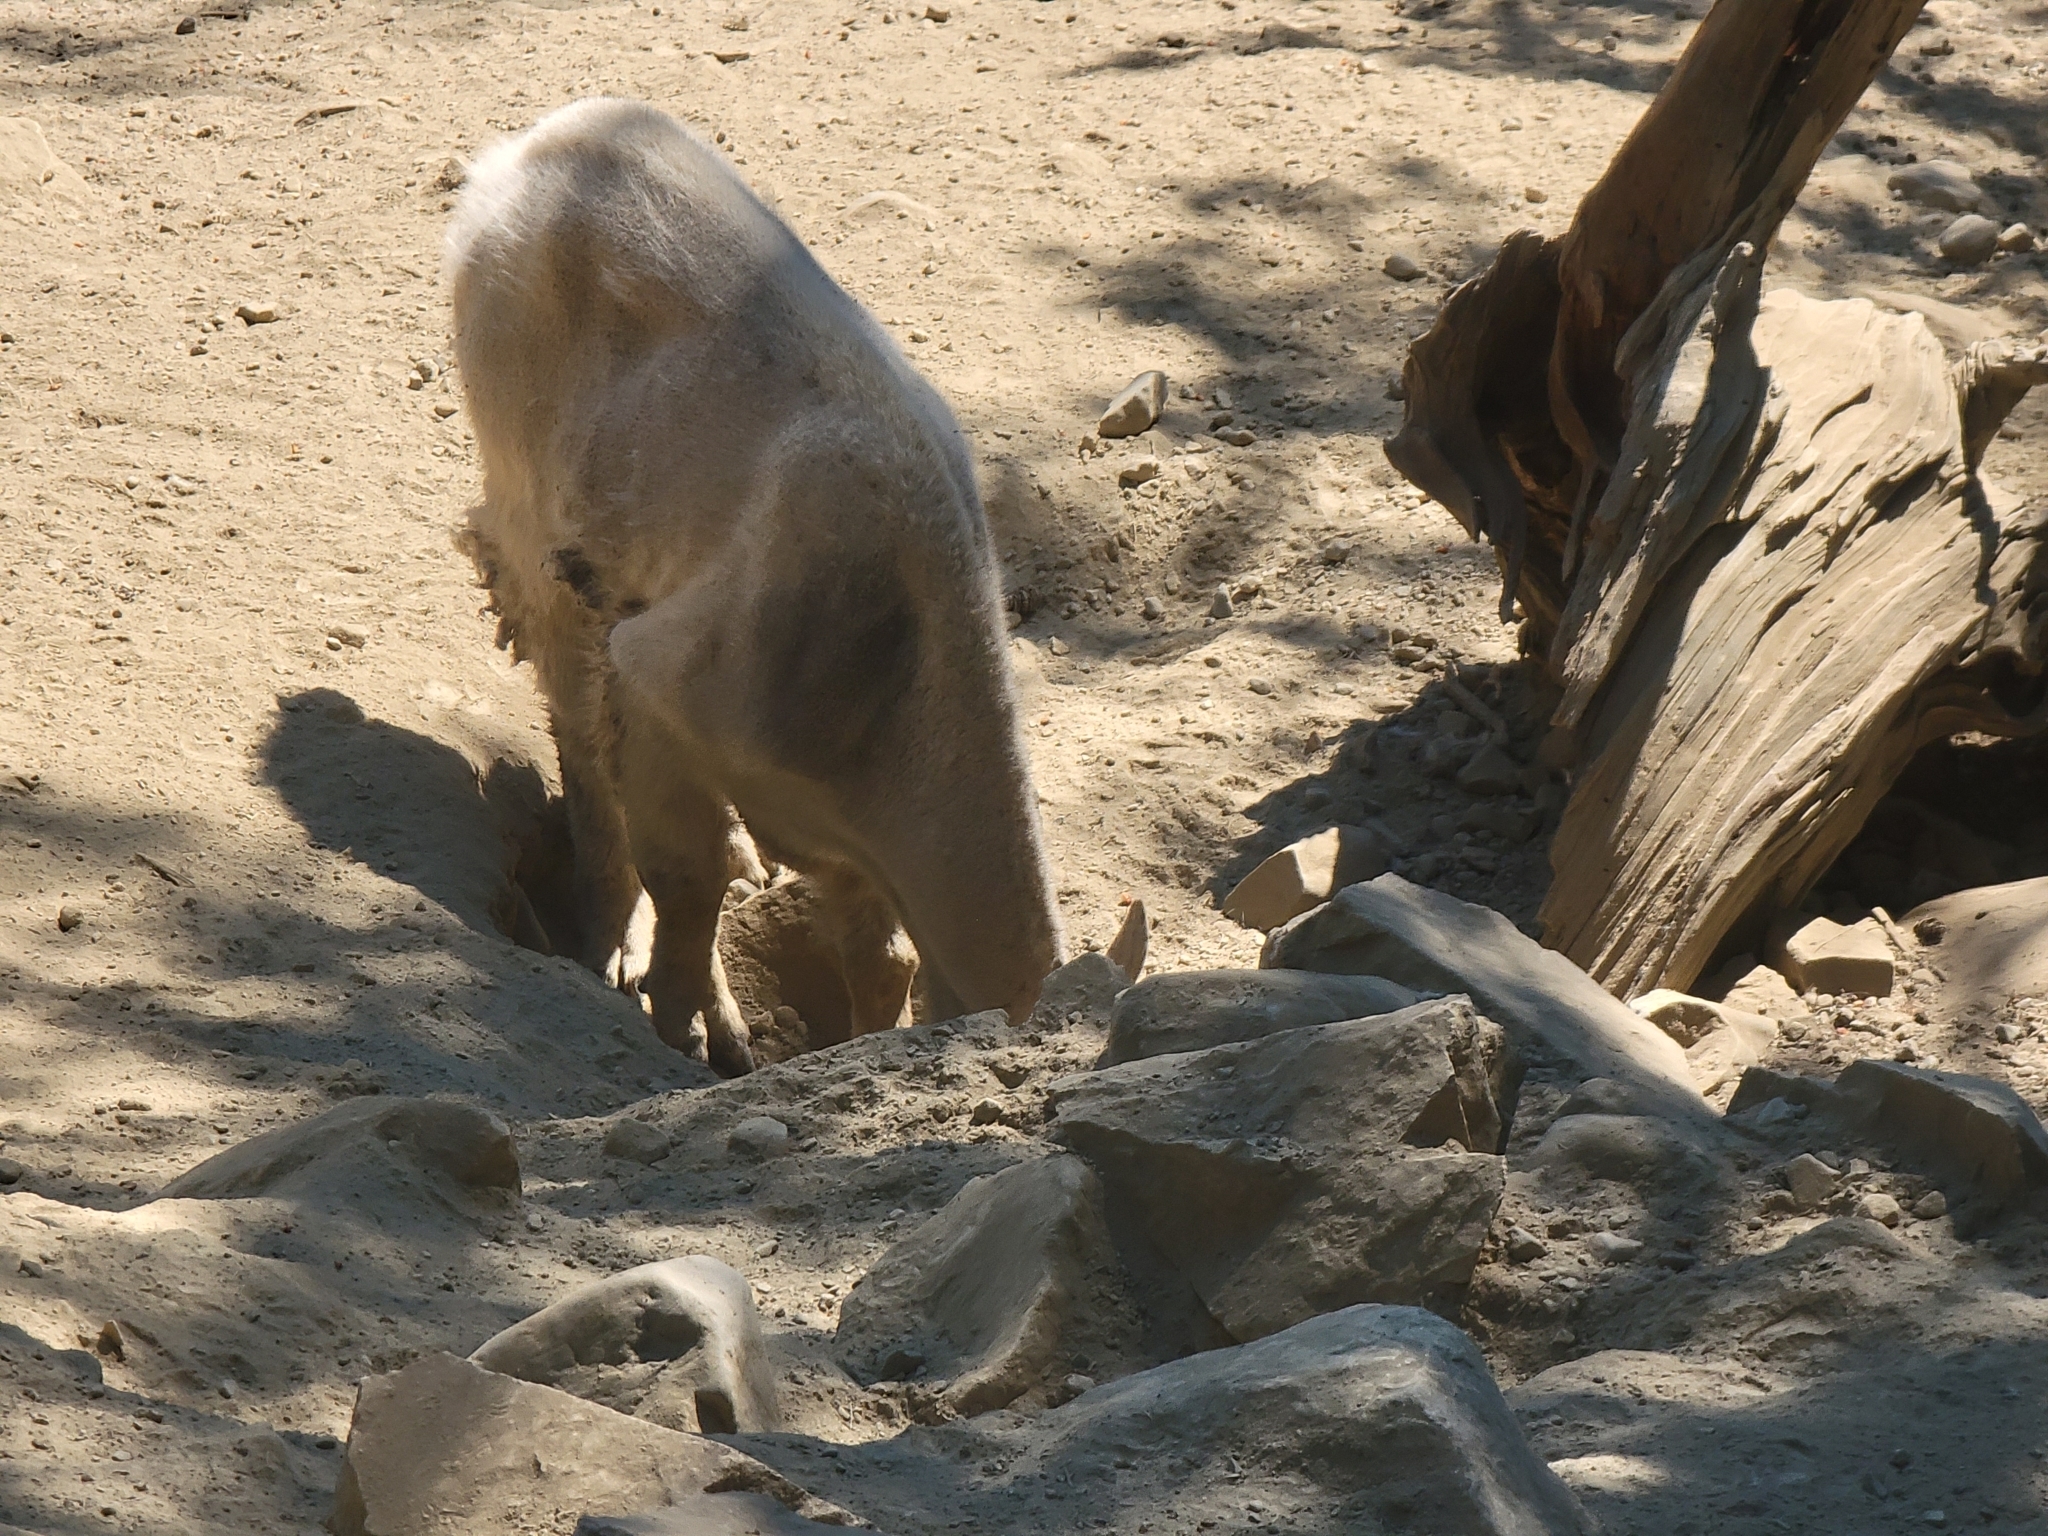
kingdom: Animalia
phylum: Chordata
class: Mammalia
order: Artiodactyla
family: Bovidae
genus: Oreamnos
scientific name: Oreamnos americanus
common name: Mountain goat
